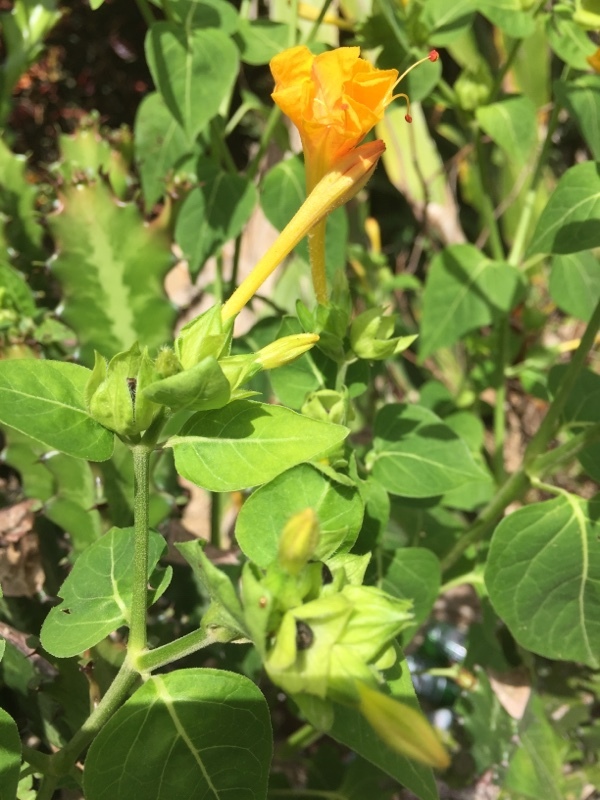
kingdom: Plantae
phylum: Tracheophyta
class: Magnoliopsida
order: Caryophyllales
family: Nyctaginaceae
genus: Mirabilis
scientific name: Mirabilis jalapa
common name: Marvel-of-peru
